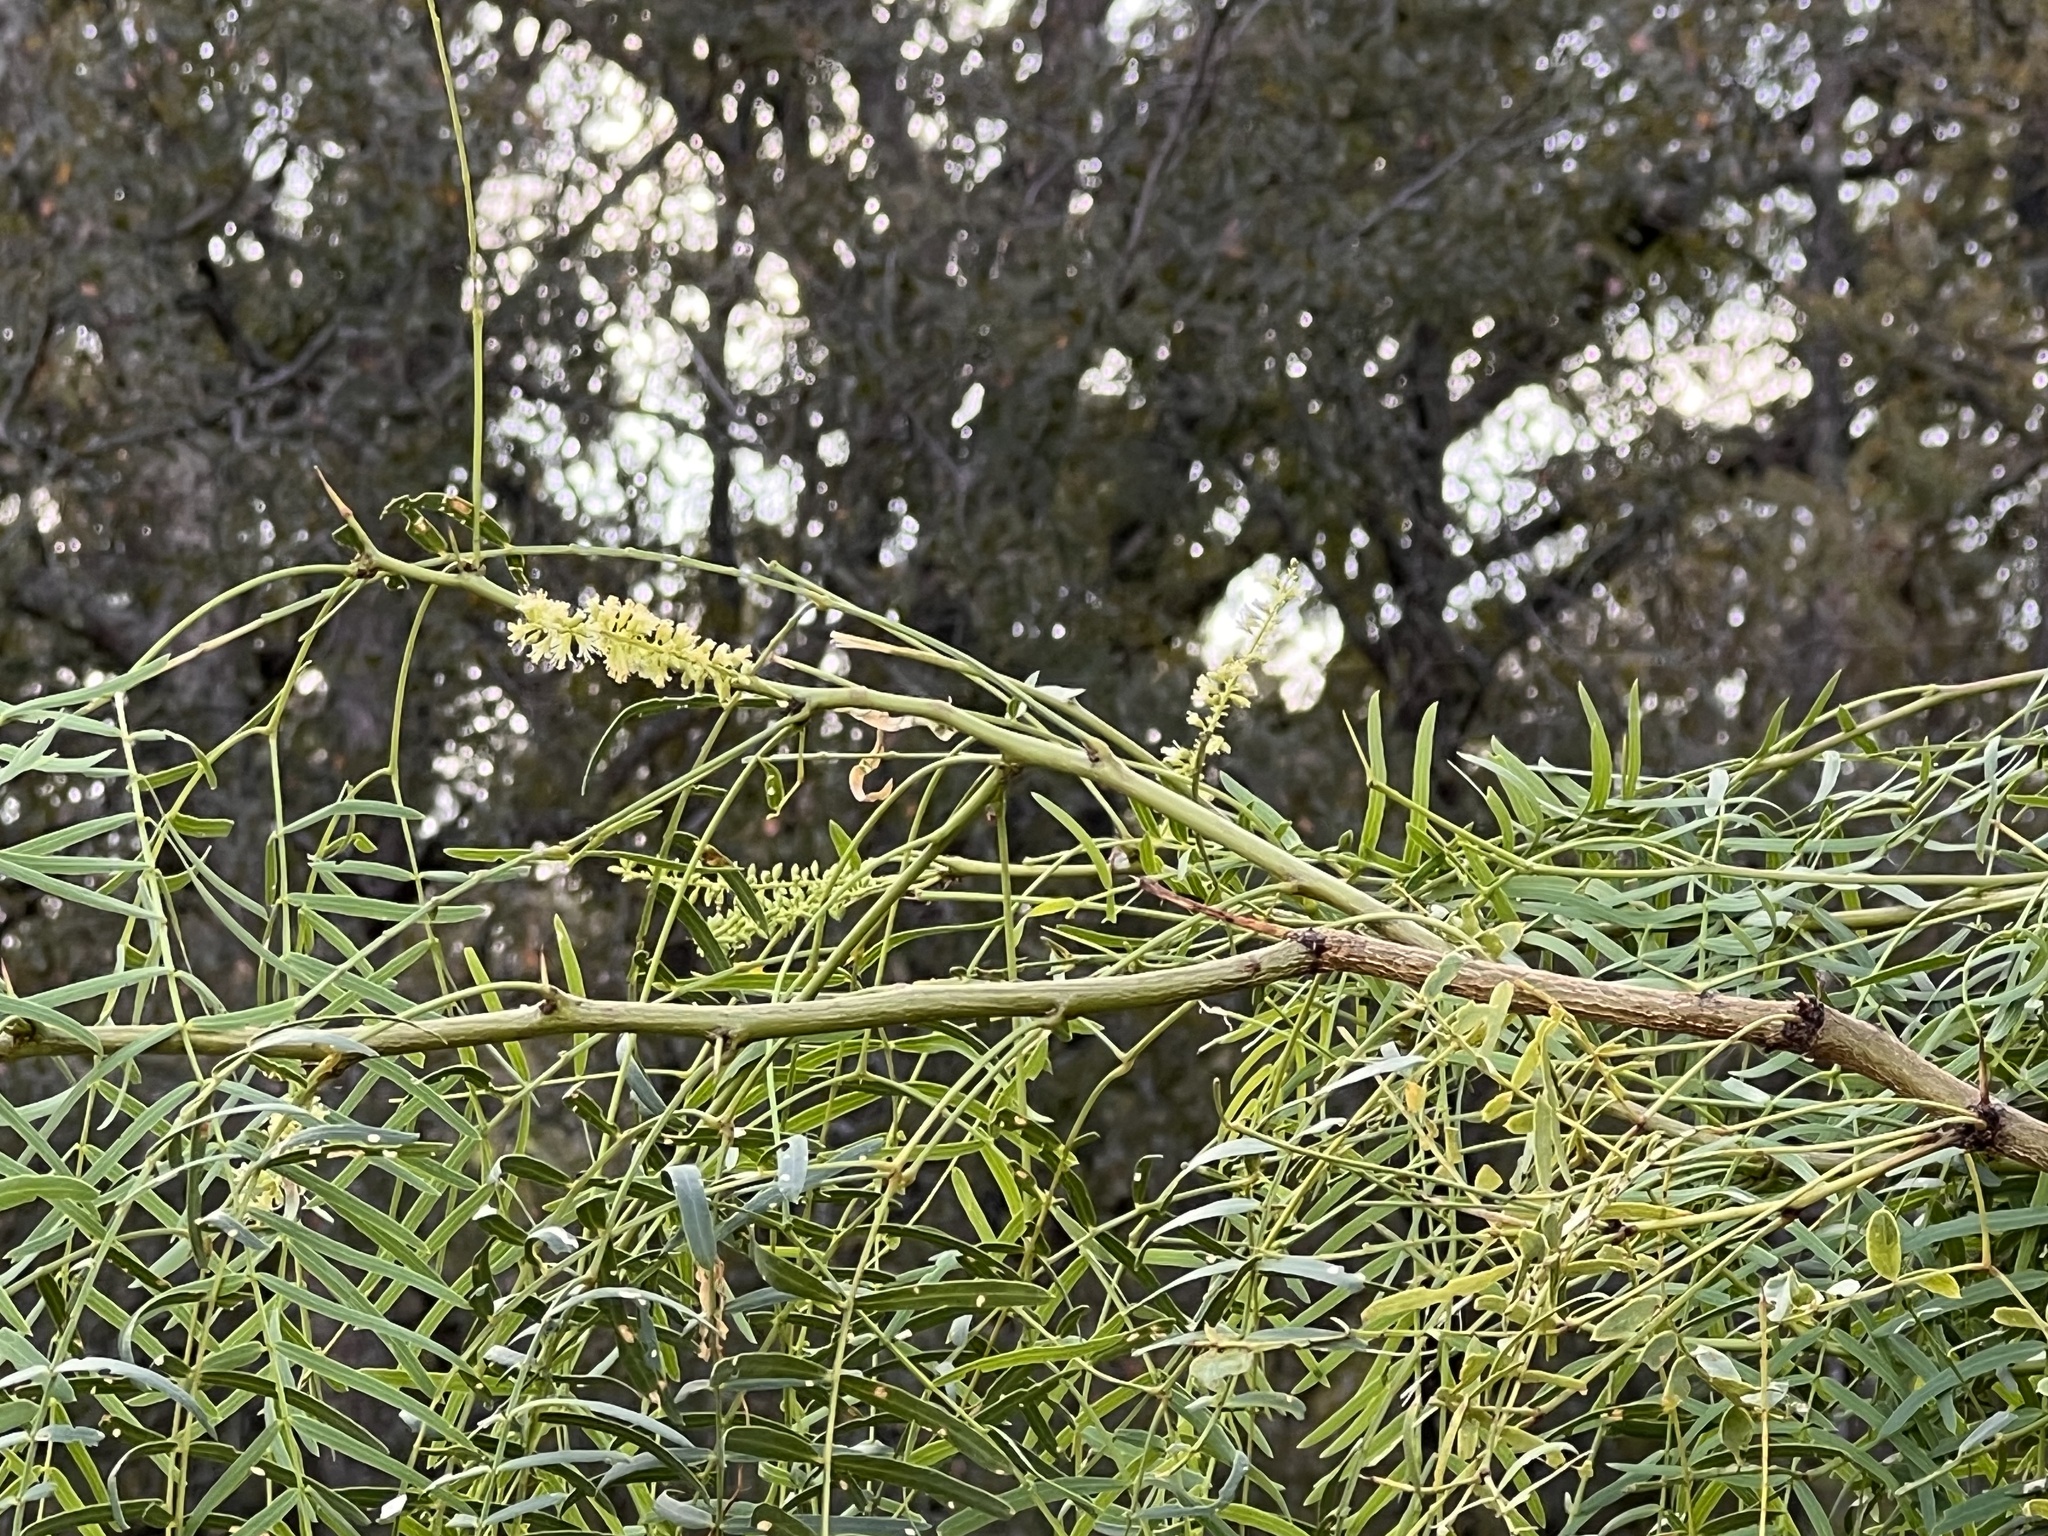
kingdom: Plantae
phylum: Tracheophyta
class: Magnoliopsida
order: Fabales
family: Fabaceae
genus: Prosopis
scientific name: Prosopis glandulosa
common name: Honey mesquite
